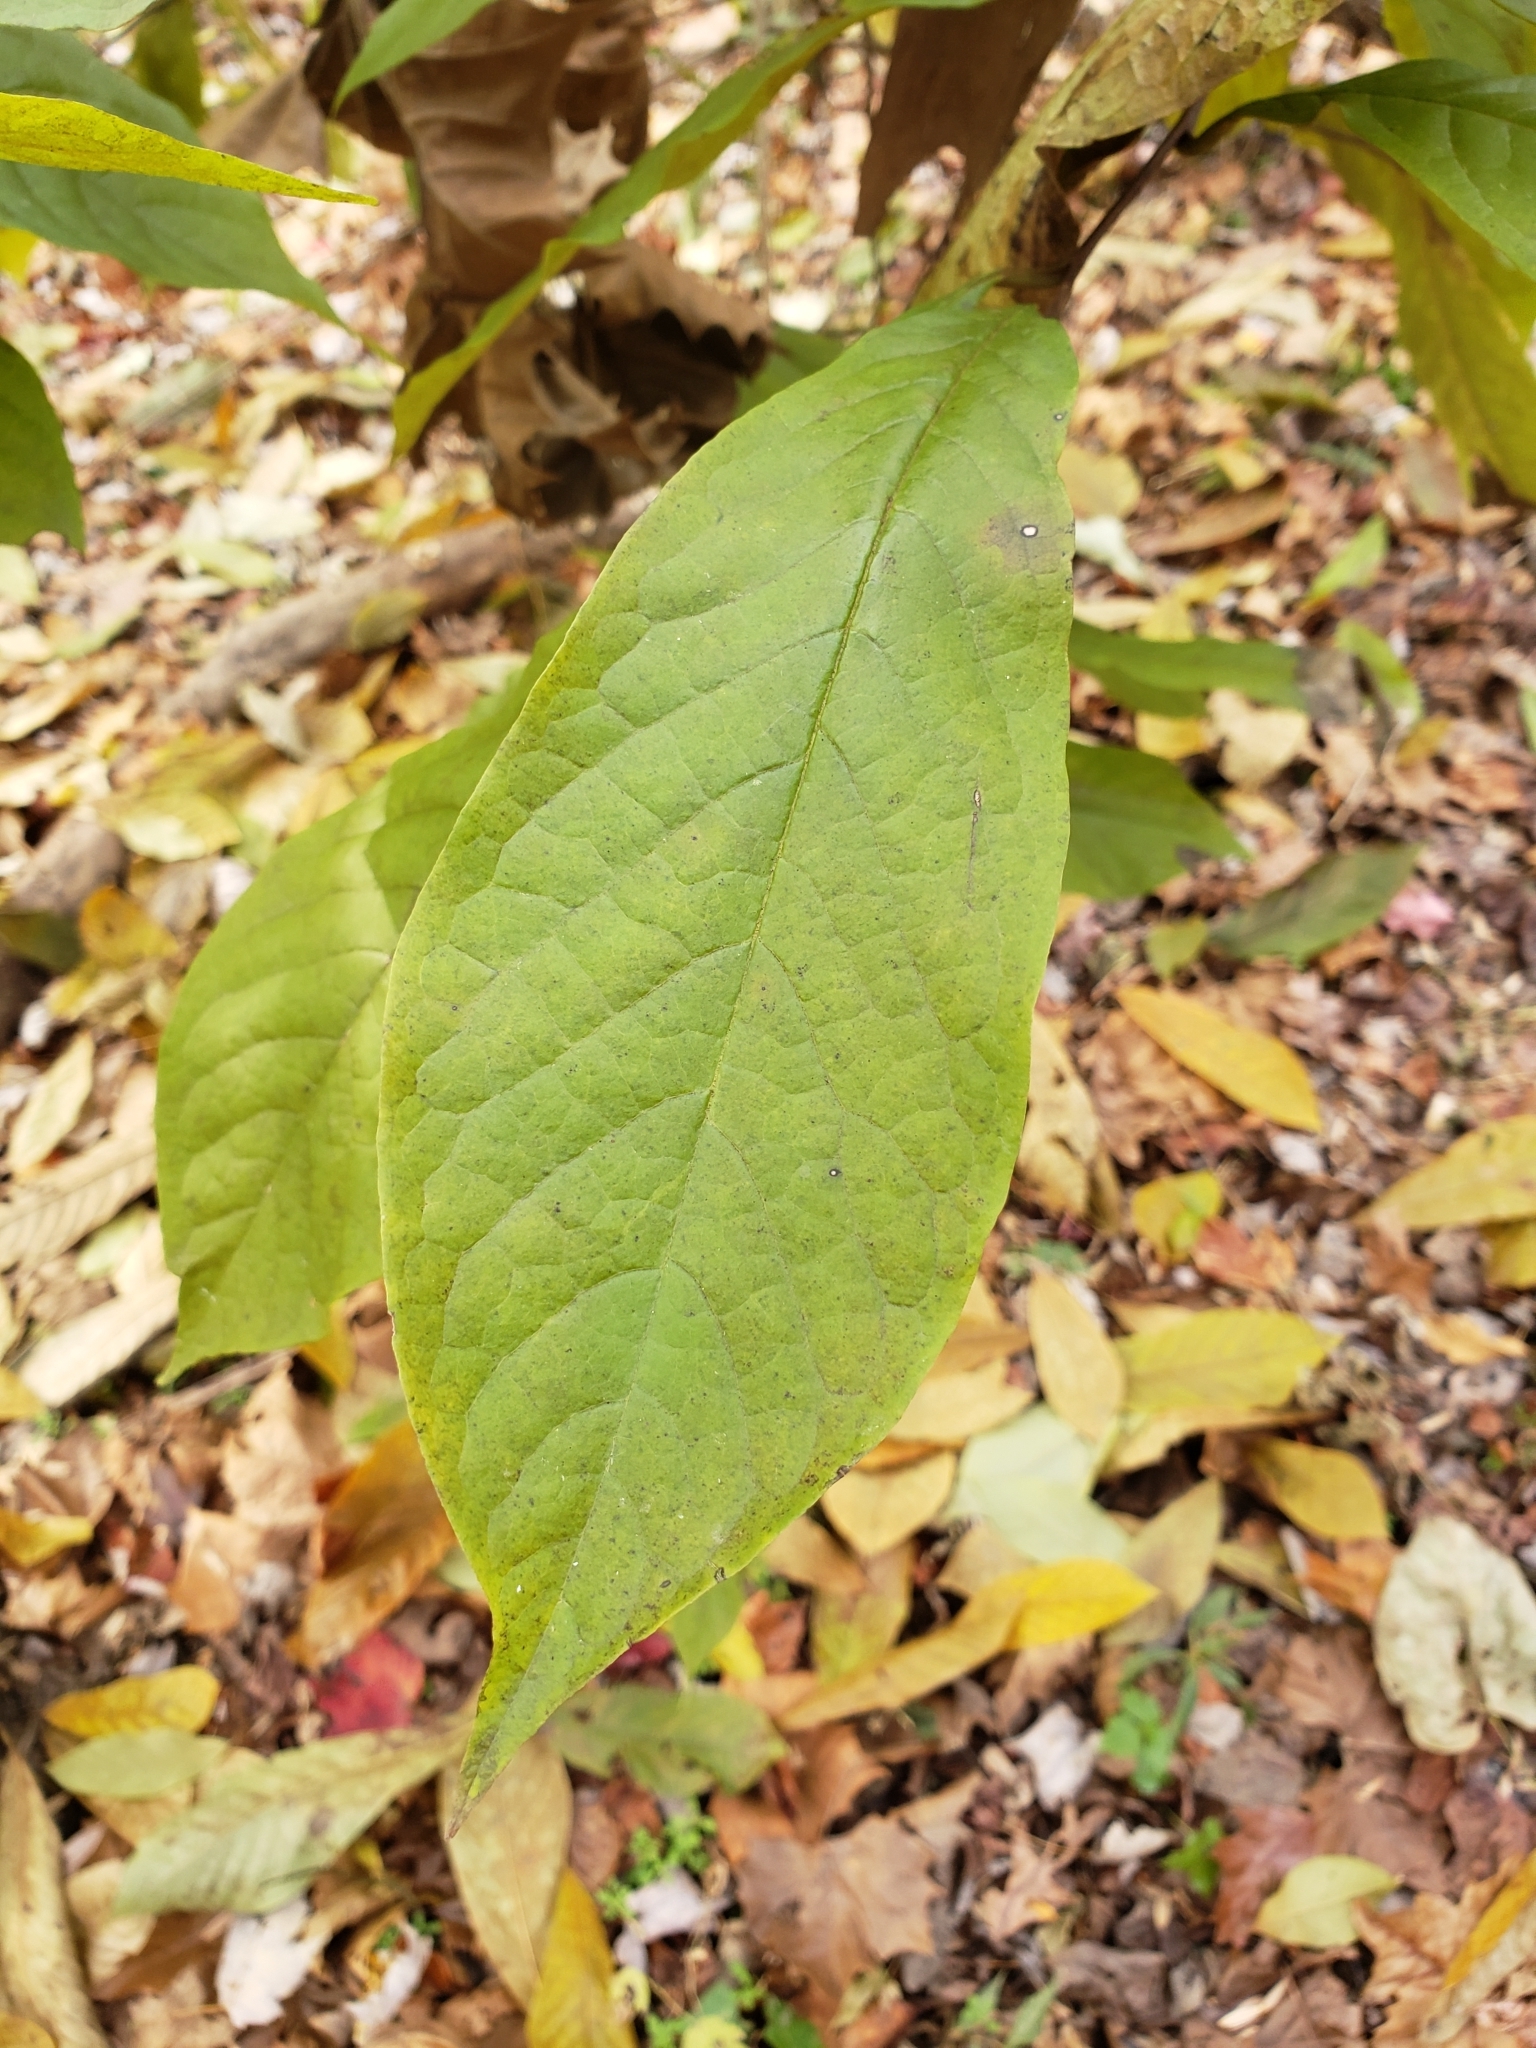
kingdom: Plantae
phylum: Tracheophyta
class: Magnoliopsida
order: Magnoliales
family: Annonaceae
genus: Asimina
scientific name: Asimina triloba
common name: Dog-banana
